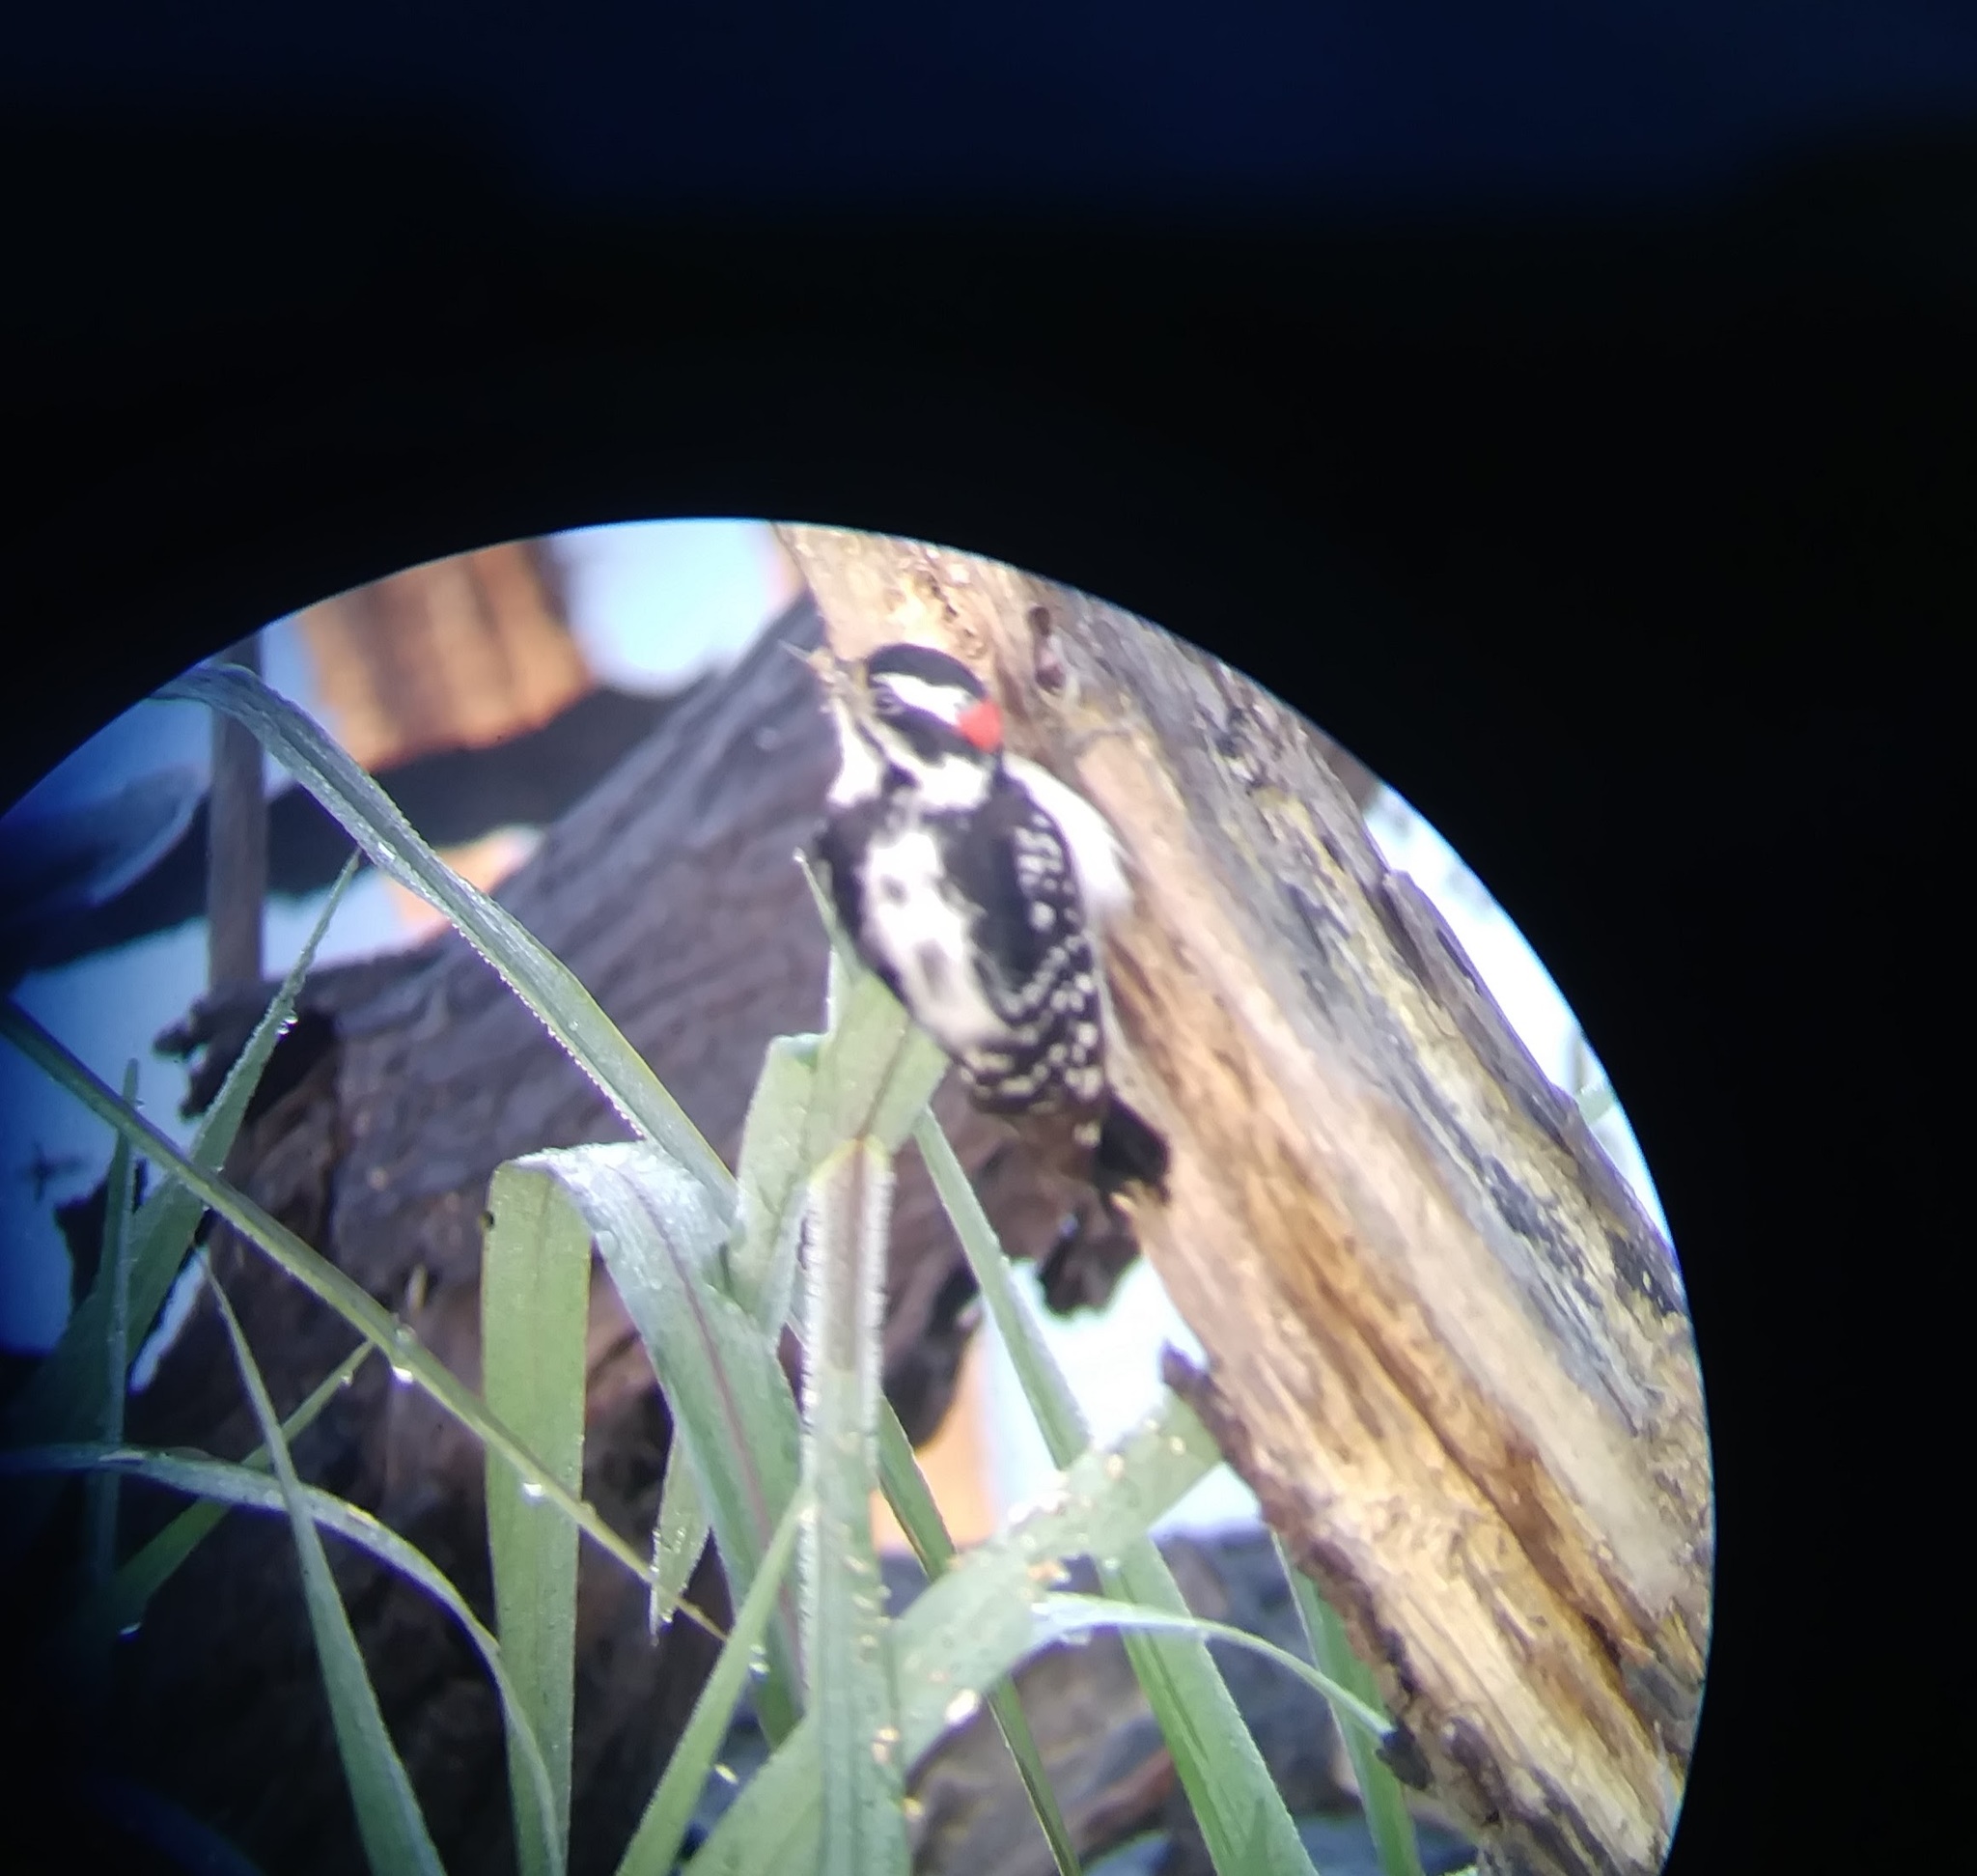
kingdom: Animalia
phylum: Chordata
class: Aves
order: Piciformes
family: Picidae
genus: Dryobates
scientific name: Dryobates pubescens
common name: Downy woodpecker
